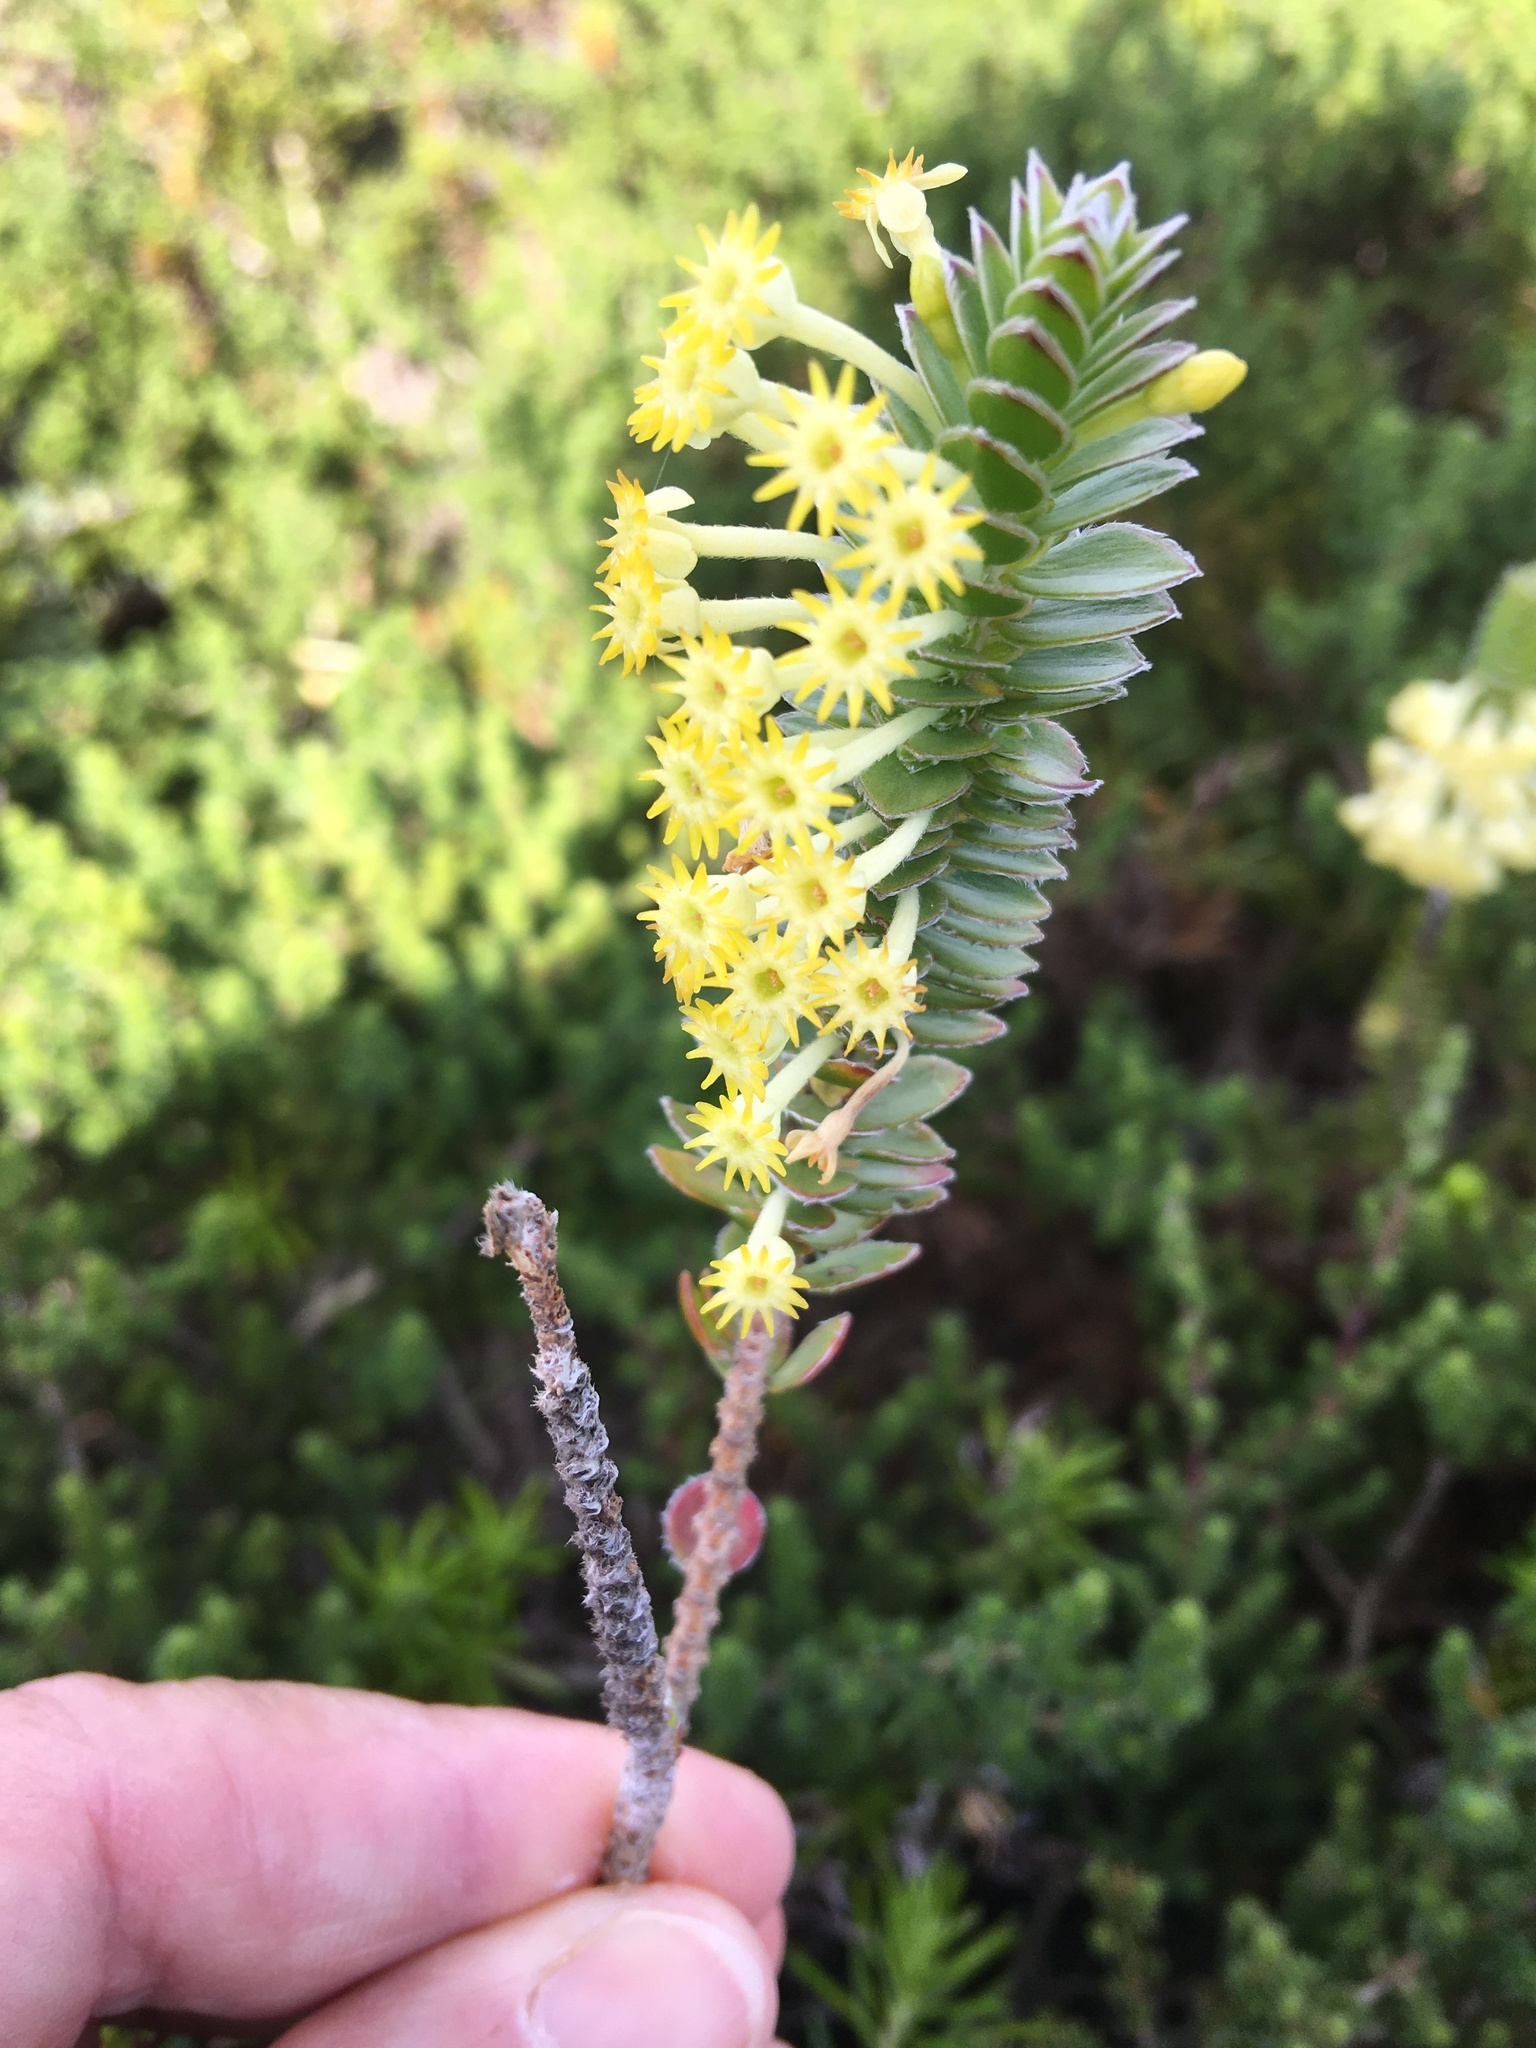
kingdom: Plantae
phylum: Tracheophyta
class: Magnoliopsida
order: Malvales
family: Thymelaeaceae
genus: Struthiola
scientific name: Struthiola argentea
